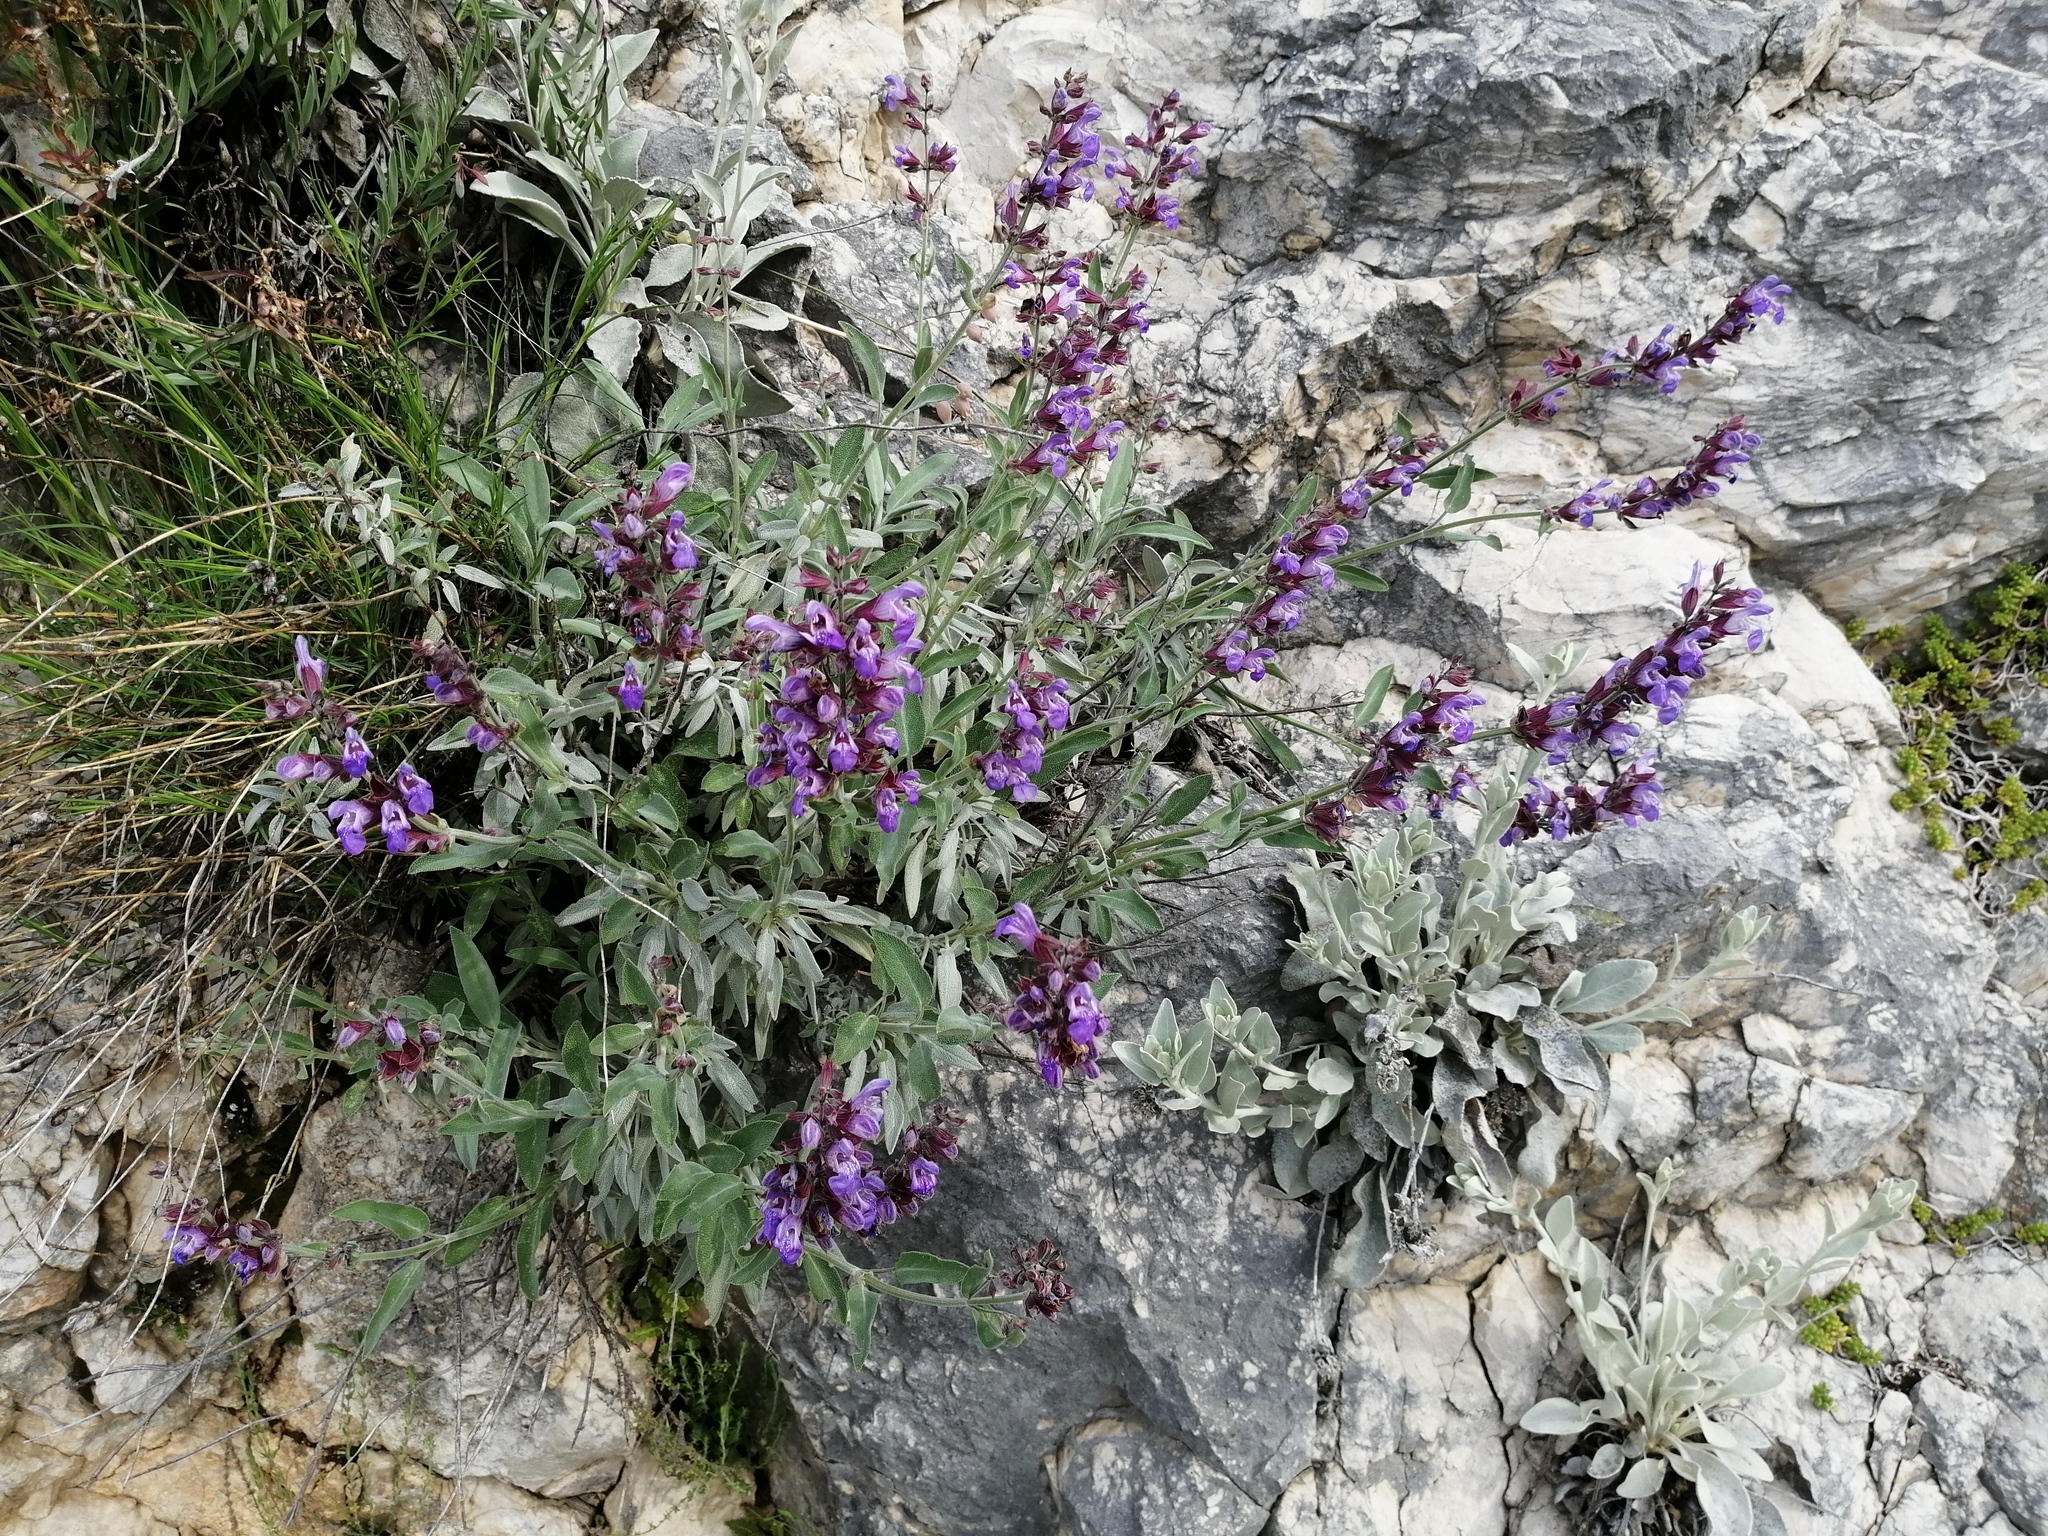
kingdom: Plantae
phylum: Tracheophyta
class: Magnoliopsida
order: Lamiales
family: Lamiaceae
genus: Salvia
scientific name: Salvia officinalis
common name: Sage
